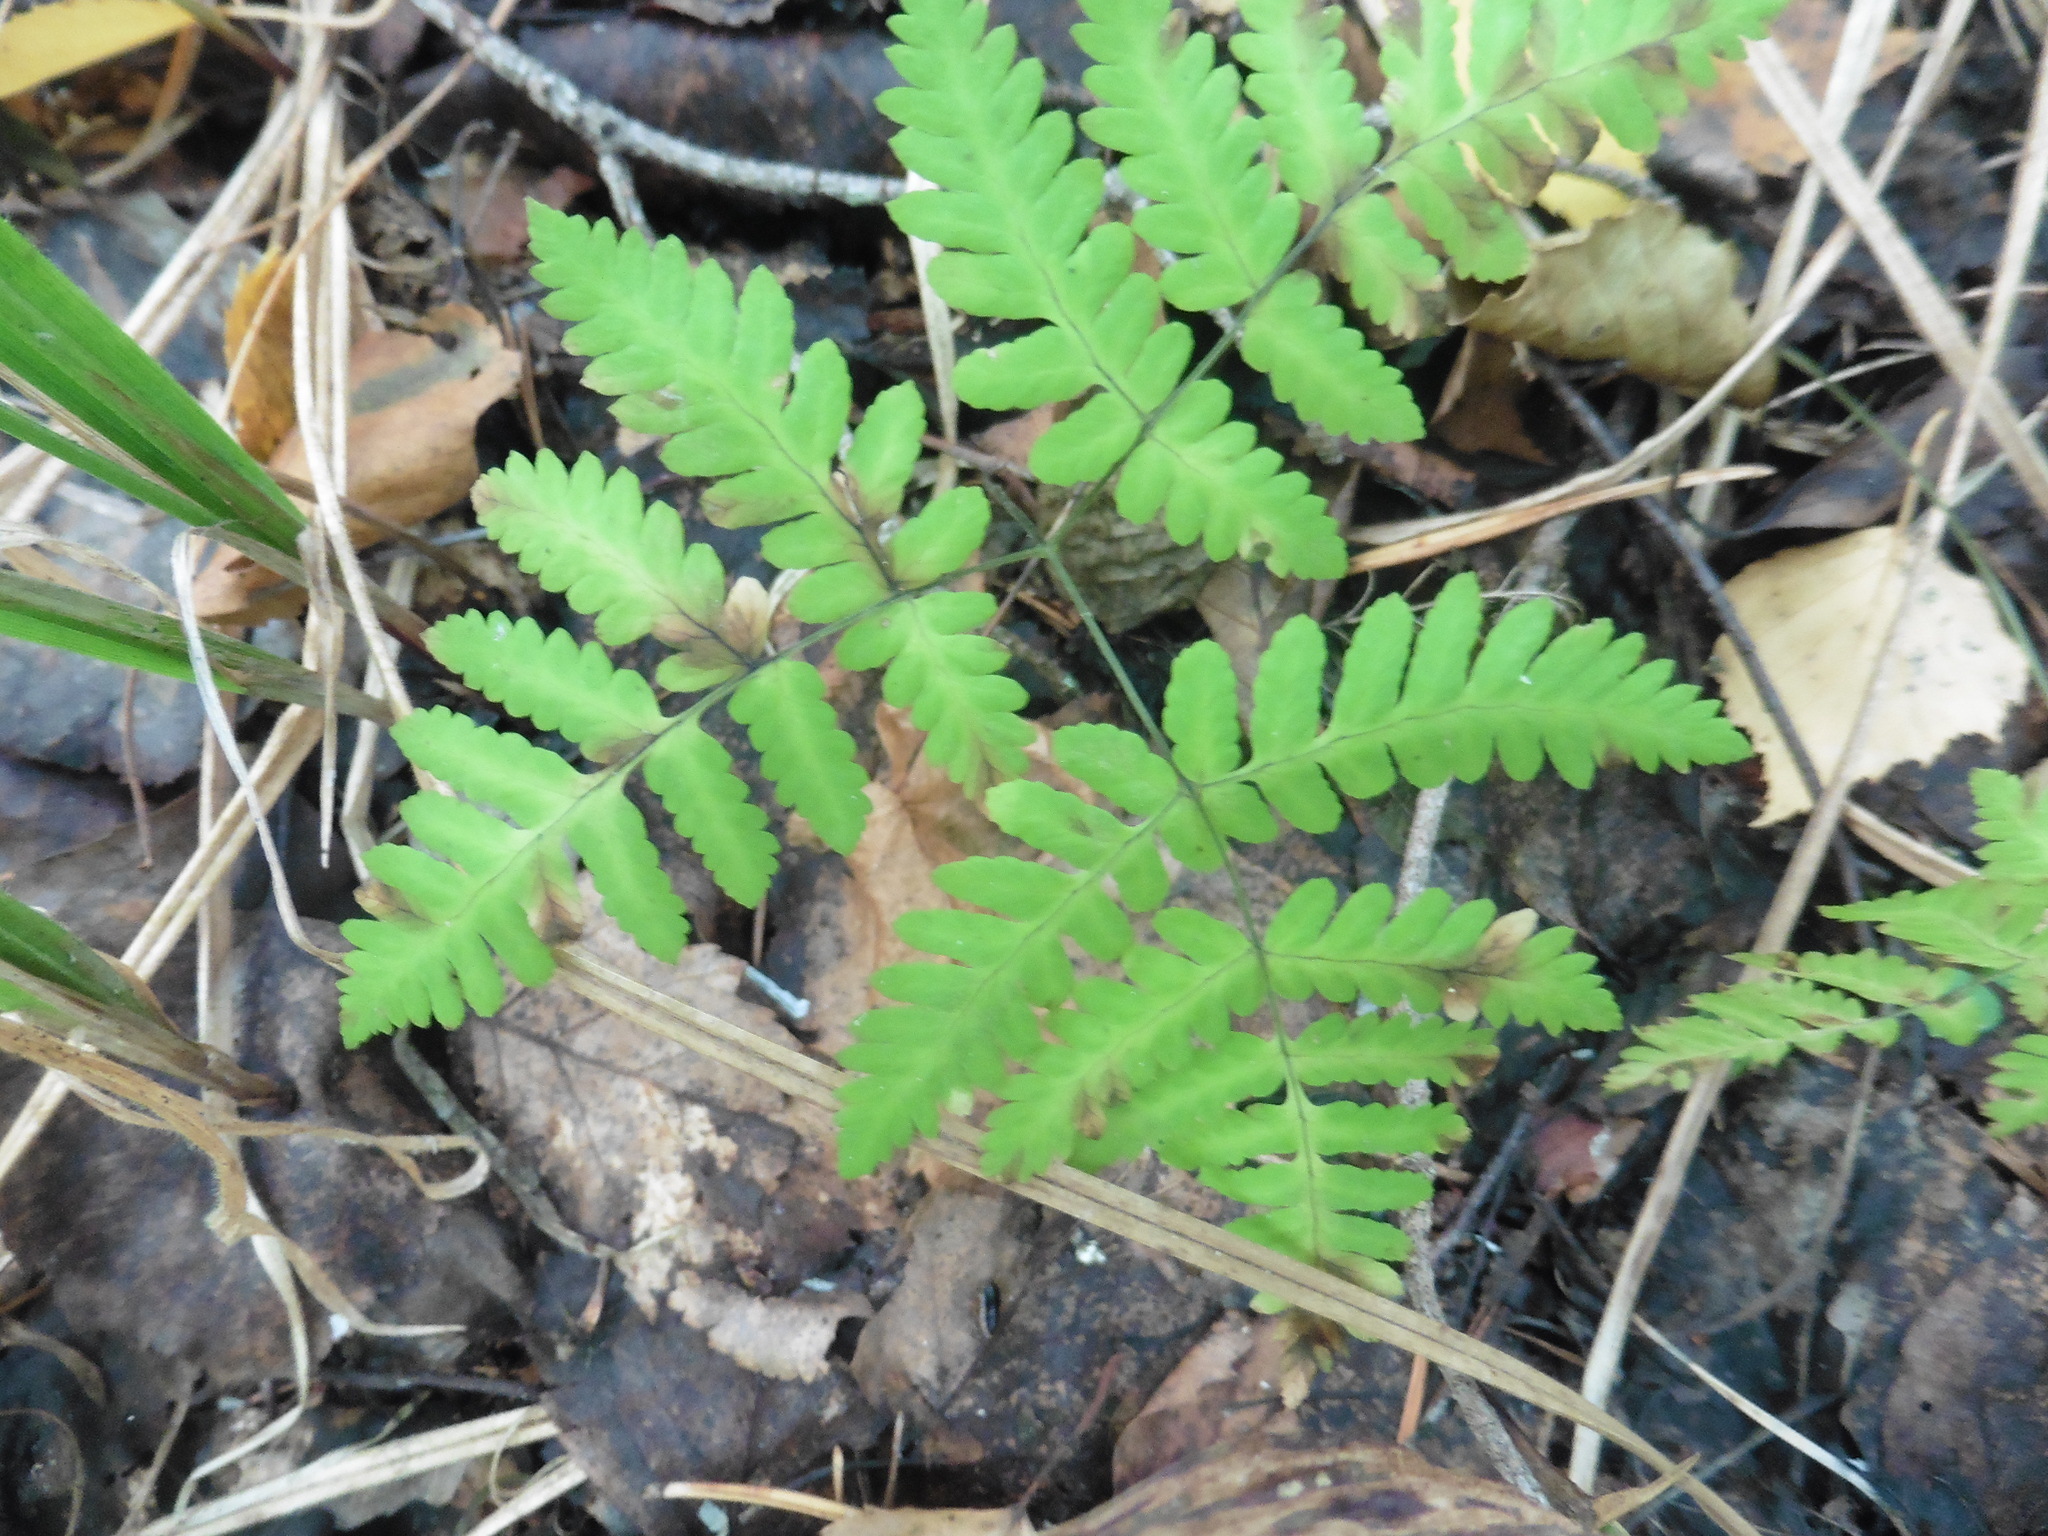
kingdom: Plantae
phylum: Tracheophyta
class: Polypodiopsida
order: Polypodiales
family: Cystopteridaceae
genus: Gymnocarpium
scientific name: Gymnocarpium dryopteris
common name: Oak fern
